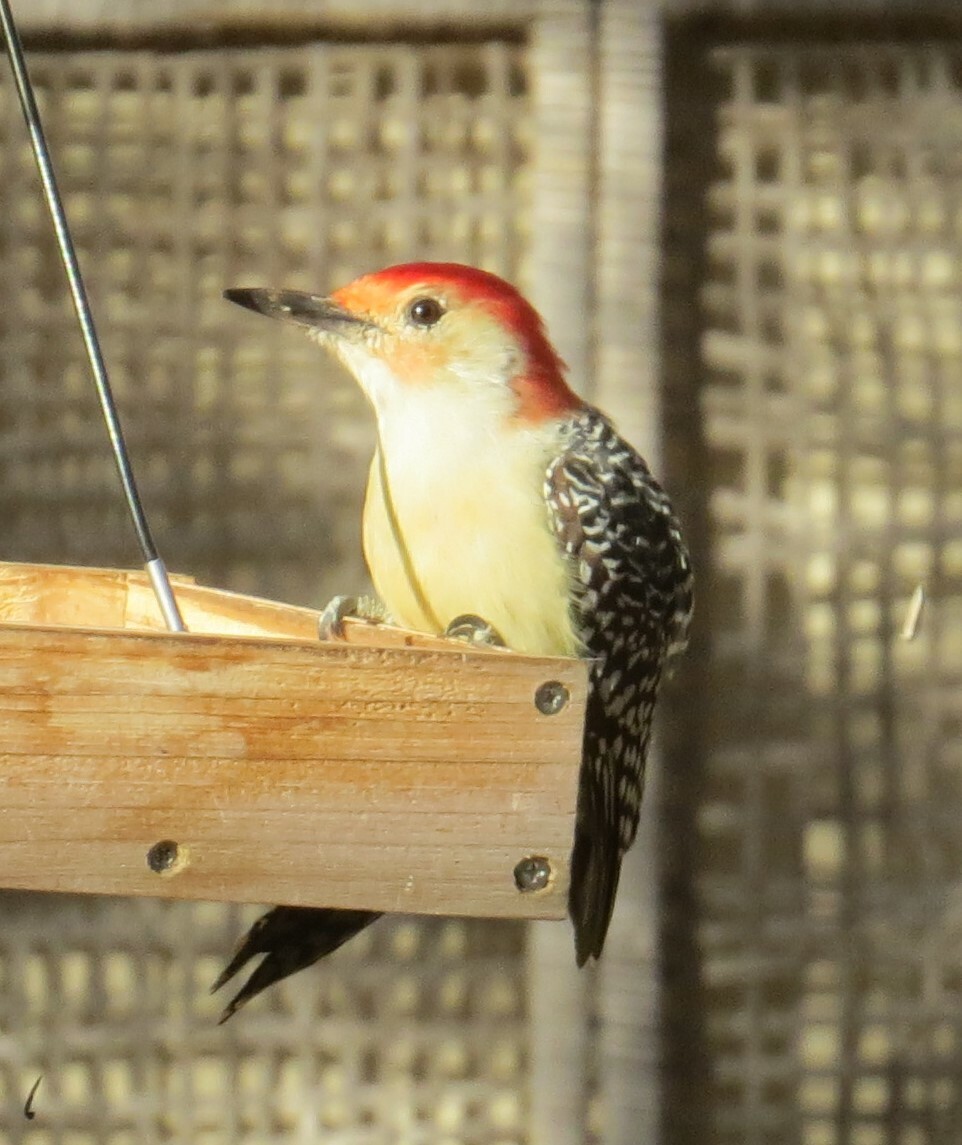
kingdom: Animalia
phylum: Chordata
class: Aves
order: Piciformes
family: Picidae
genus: Melanerpes
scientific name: Melanerpes carolinus
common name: Red-bellied woodpecker
